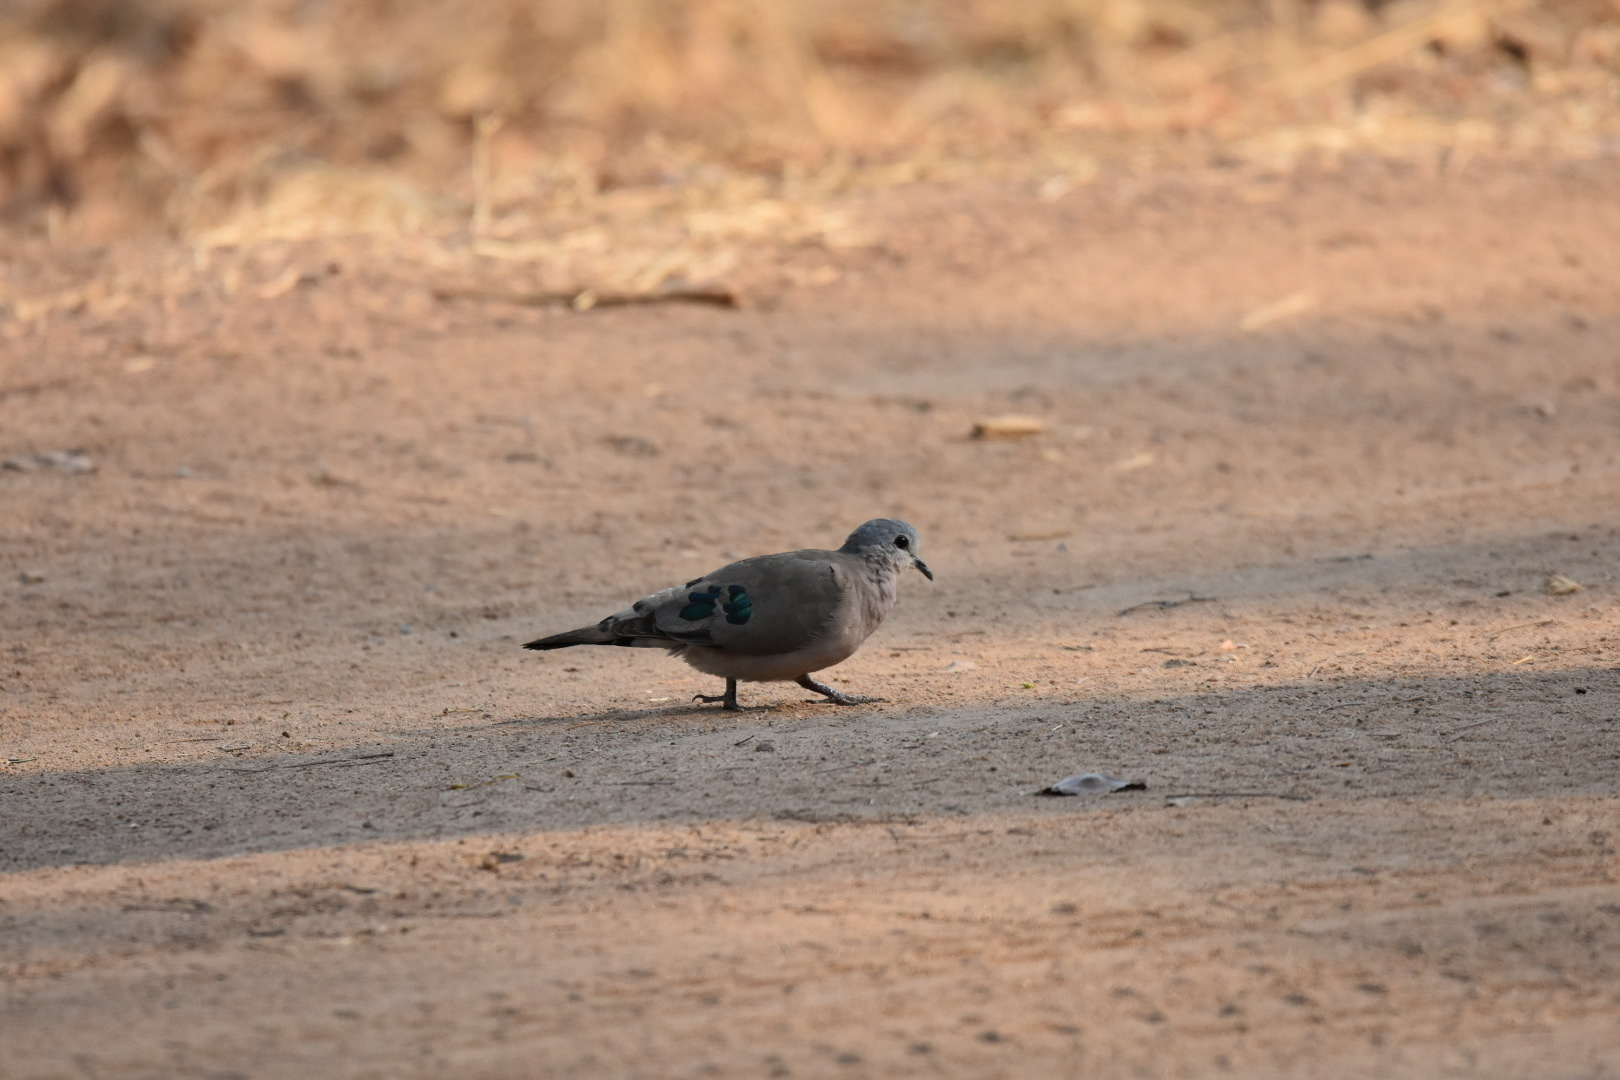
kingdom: Animalia
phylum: Chordata
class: Aves
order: Columbiformes
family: Columbidae
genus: Turtur
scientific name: Turtur chalcospilos
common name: Emerald-spotted wood dove
